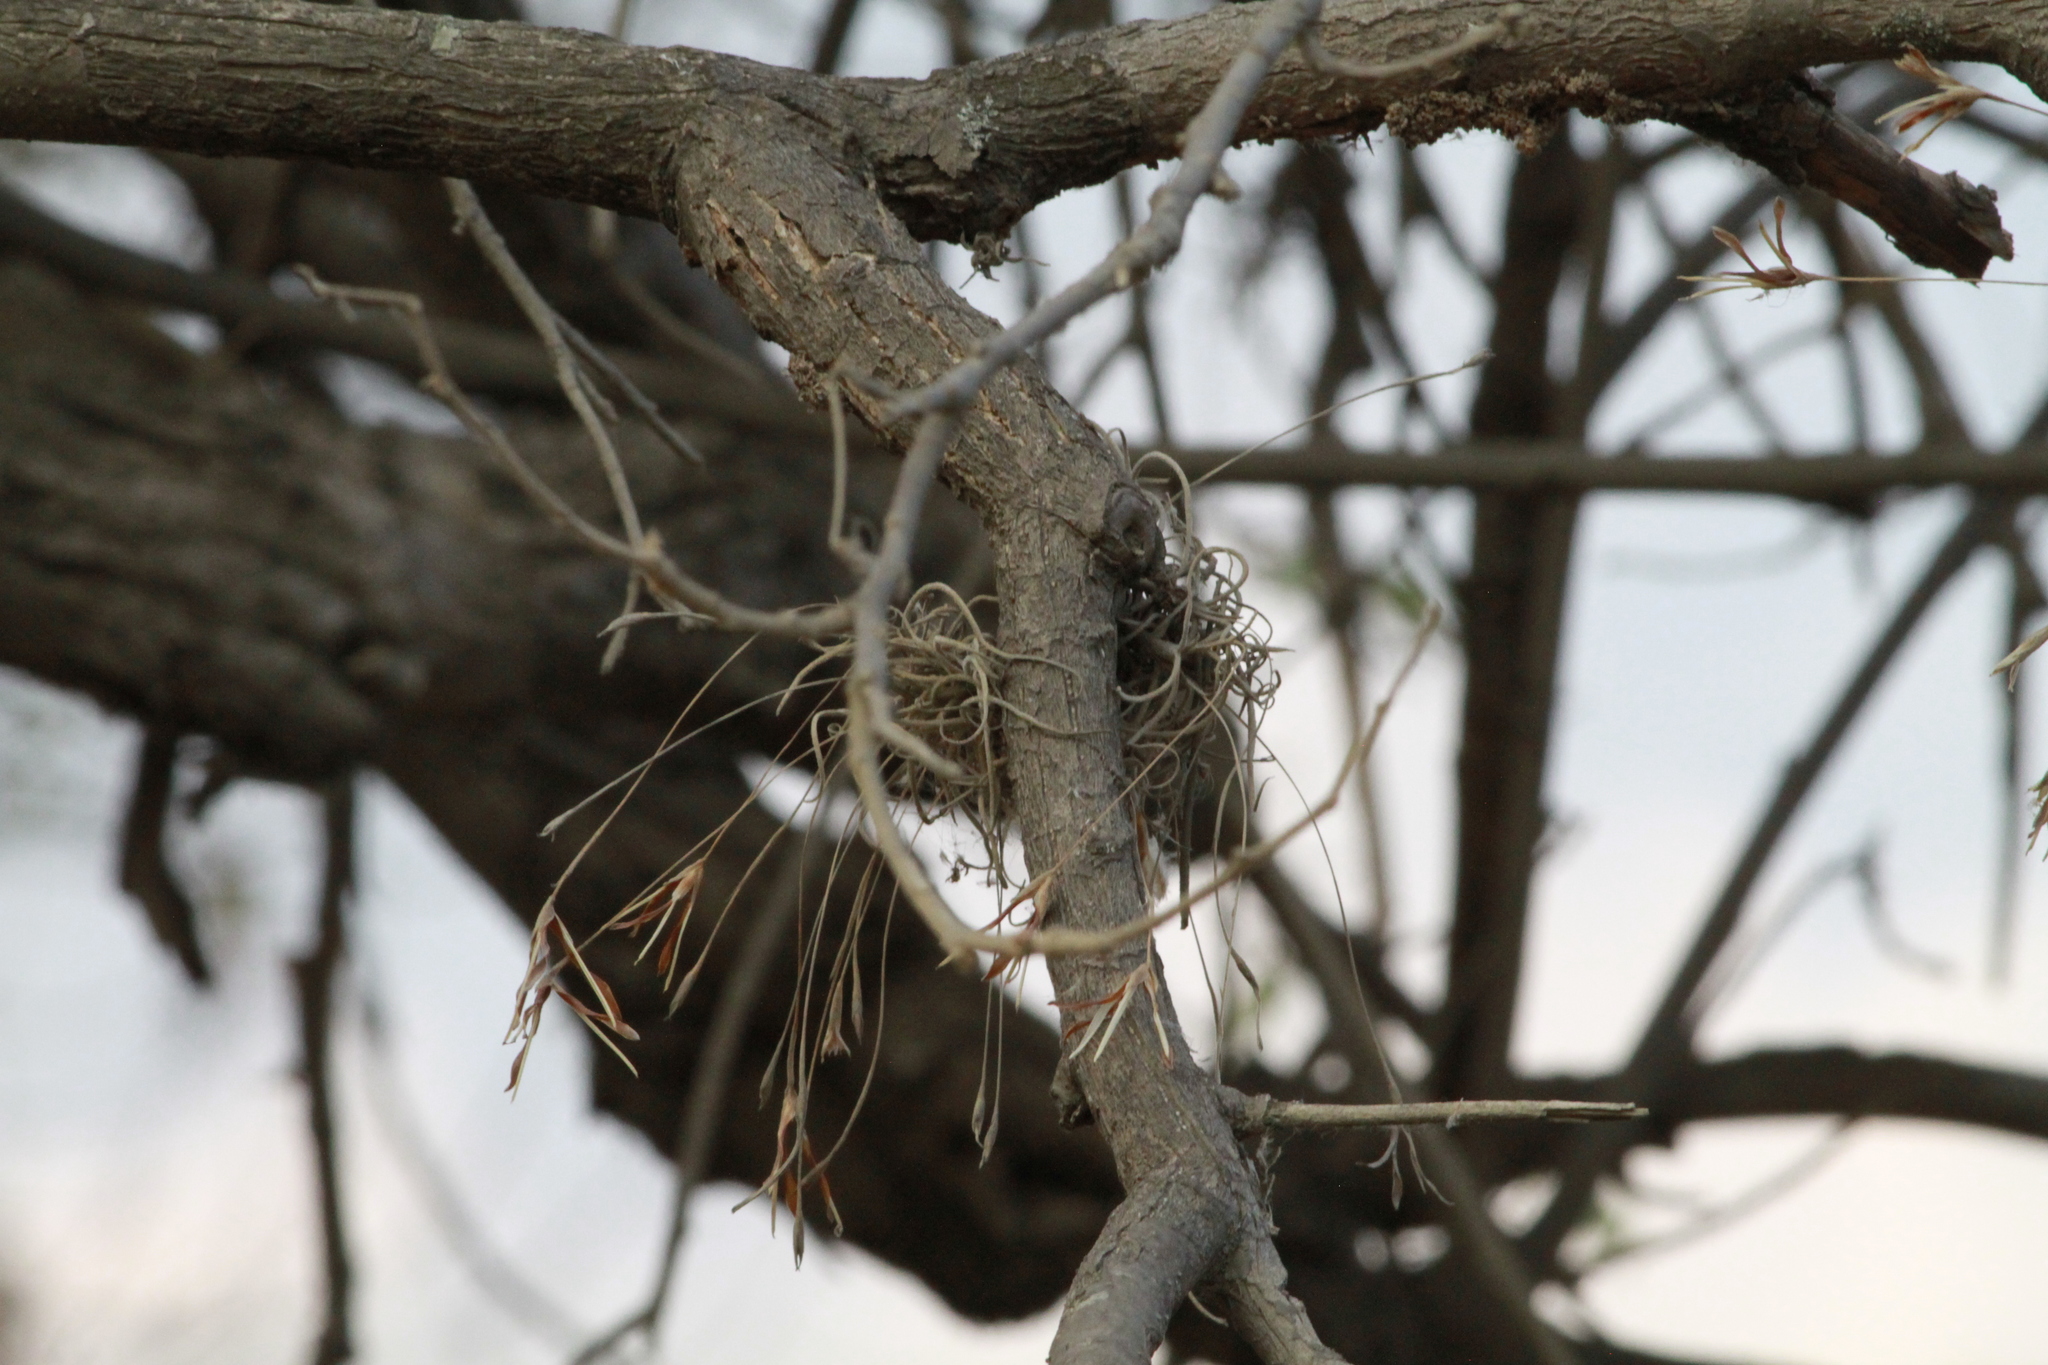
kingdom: Plantae
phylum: Tracheophyta
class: Liliopsida
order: Poales
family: Bromeliaceae
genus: Tillandsia
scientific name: Tillandsia recurvata
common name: Small ballmoss
